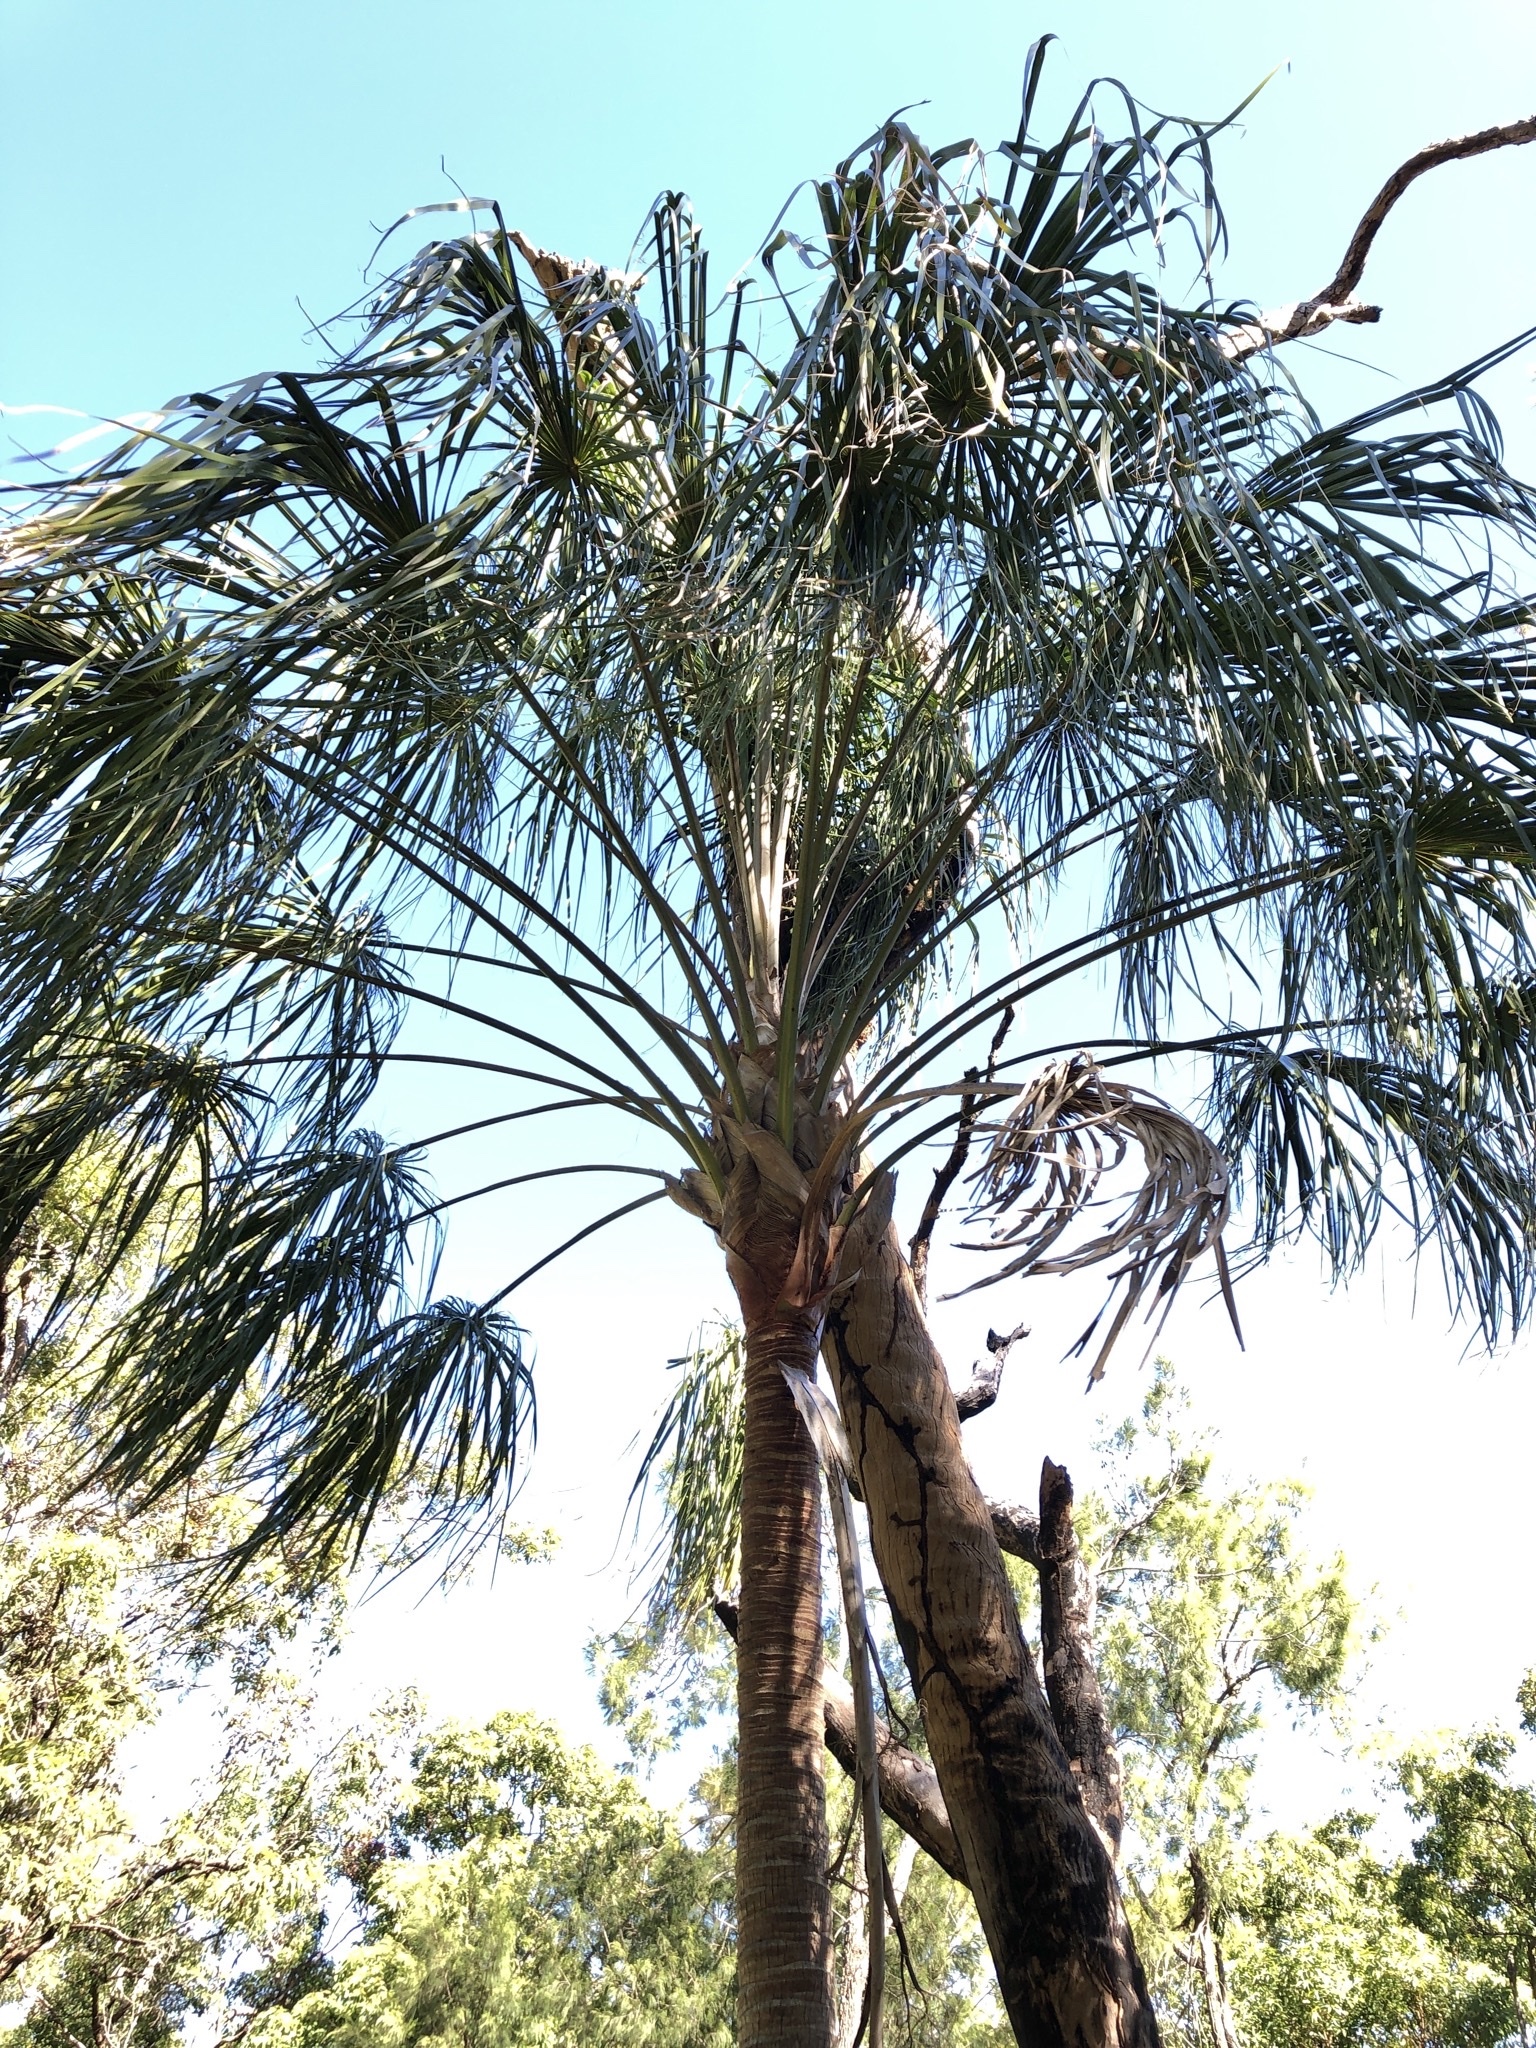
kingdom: Plantae
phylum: Tracheophyta
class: Liliopsida
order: Arecales
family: Arecaceae
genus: Livistona
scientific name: Livistona decora
